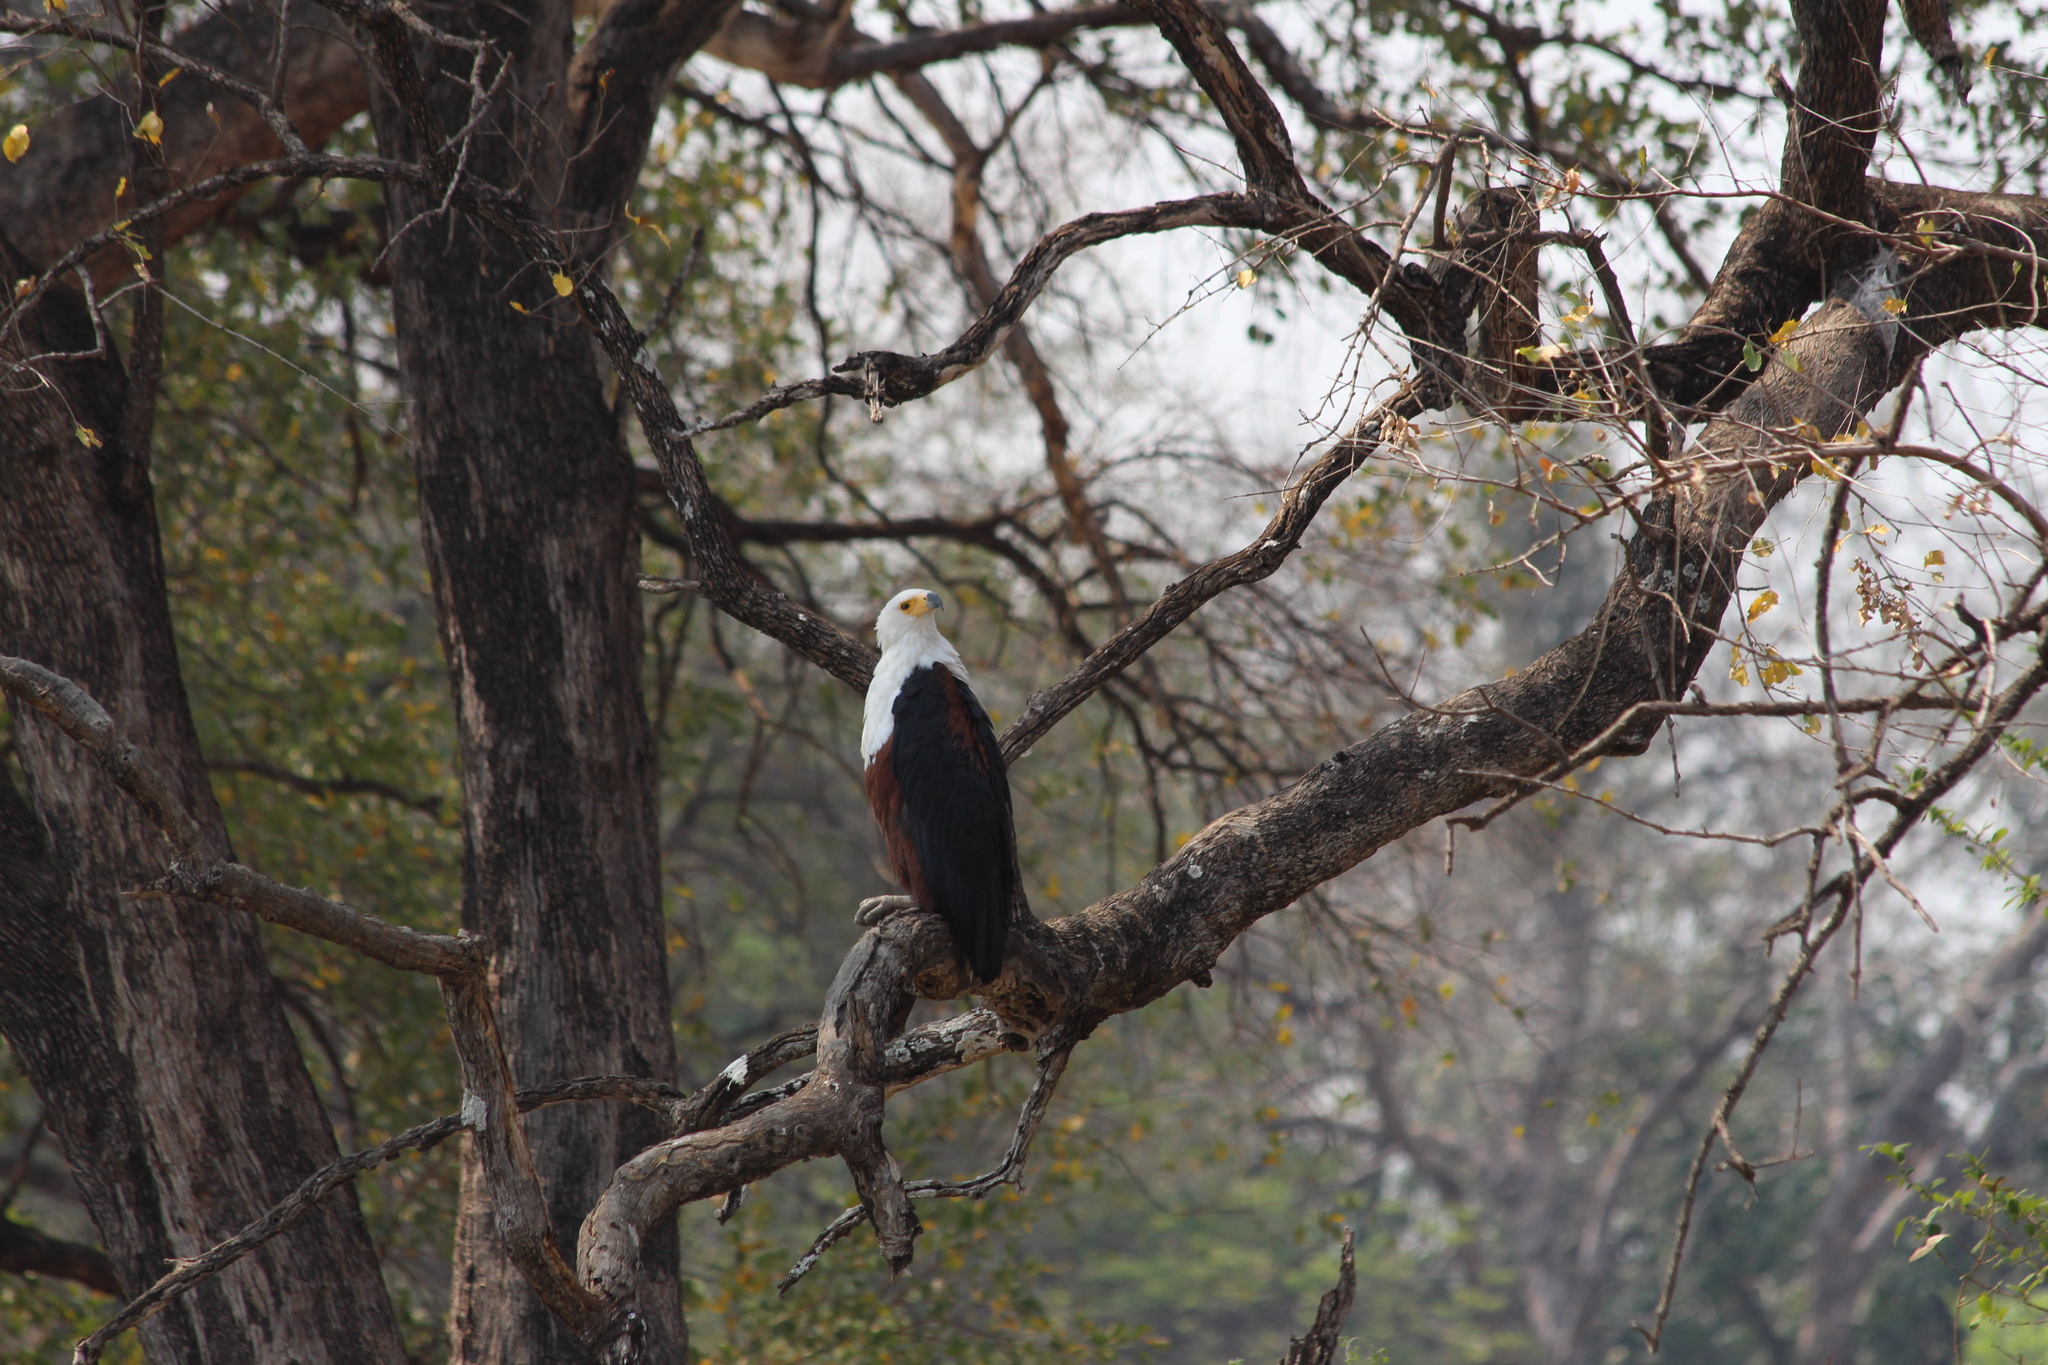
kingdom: Animalia
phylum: Chordata
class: Aves
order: Accipitriformes
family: Accipitridae
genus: Haliaeetus
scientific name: Haliaeetus vocifer
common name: African fish eagle
